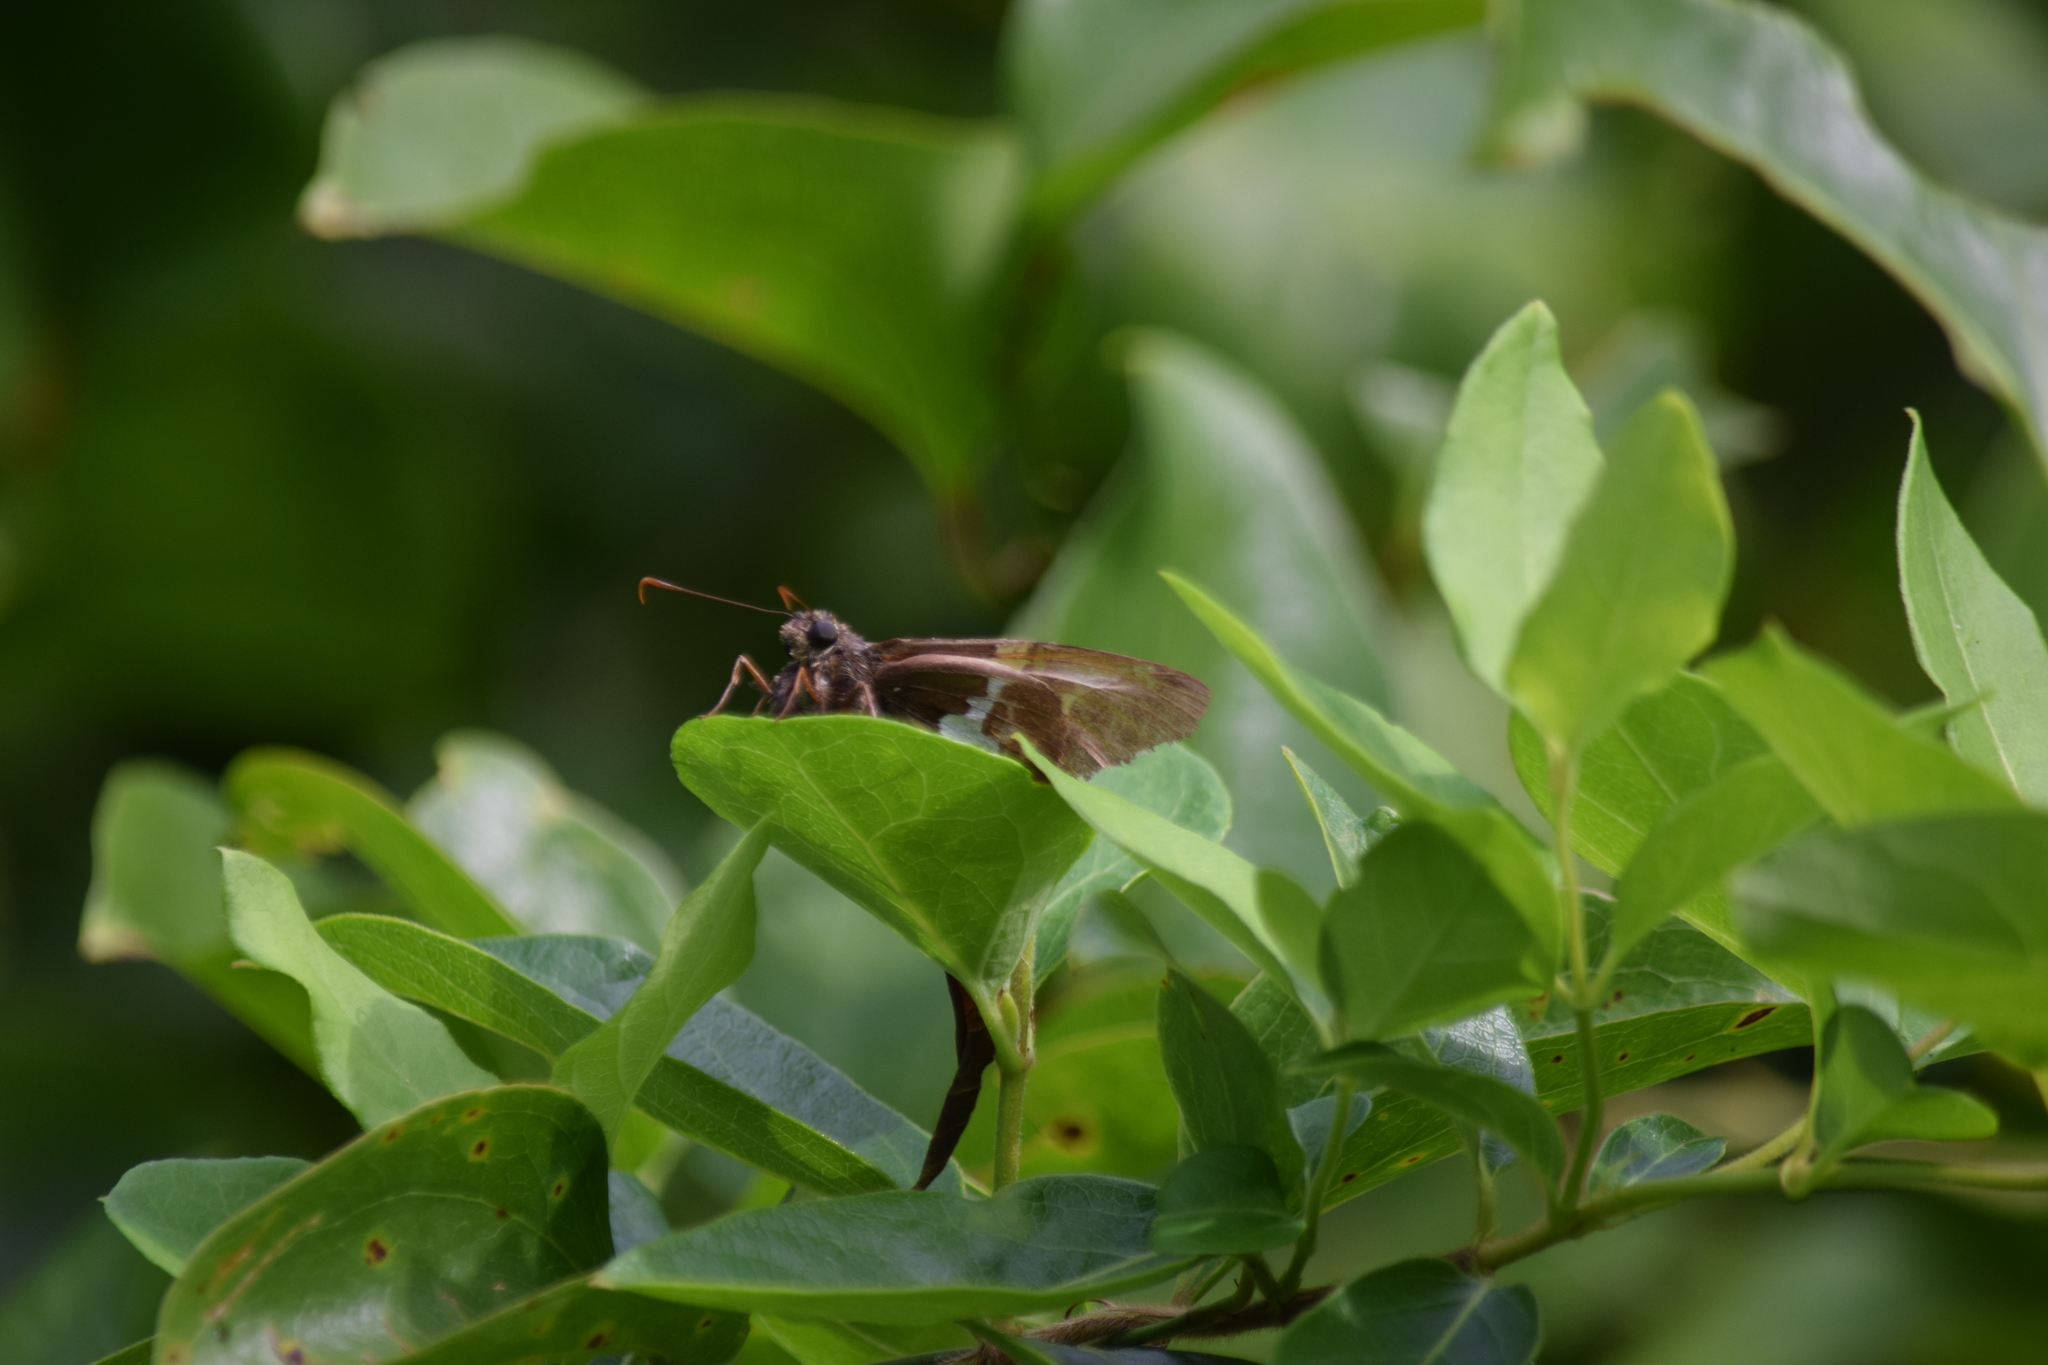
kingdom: Animalia
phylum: Arthropoda
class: Insecta
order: Lepidoptera
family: Hesperiidae
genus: Epargyreus
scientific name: Epargyreus clarus
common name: Silver-spotted skipper
